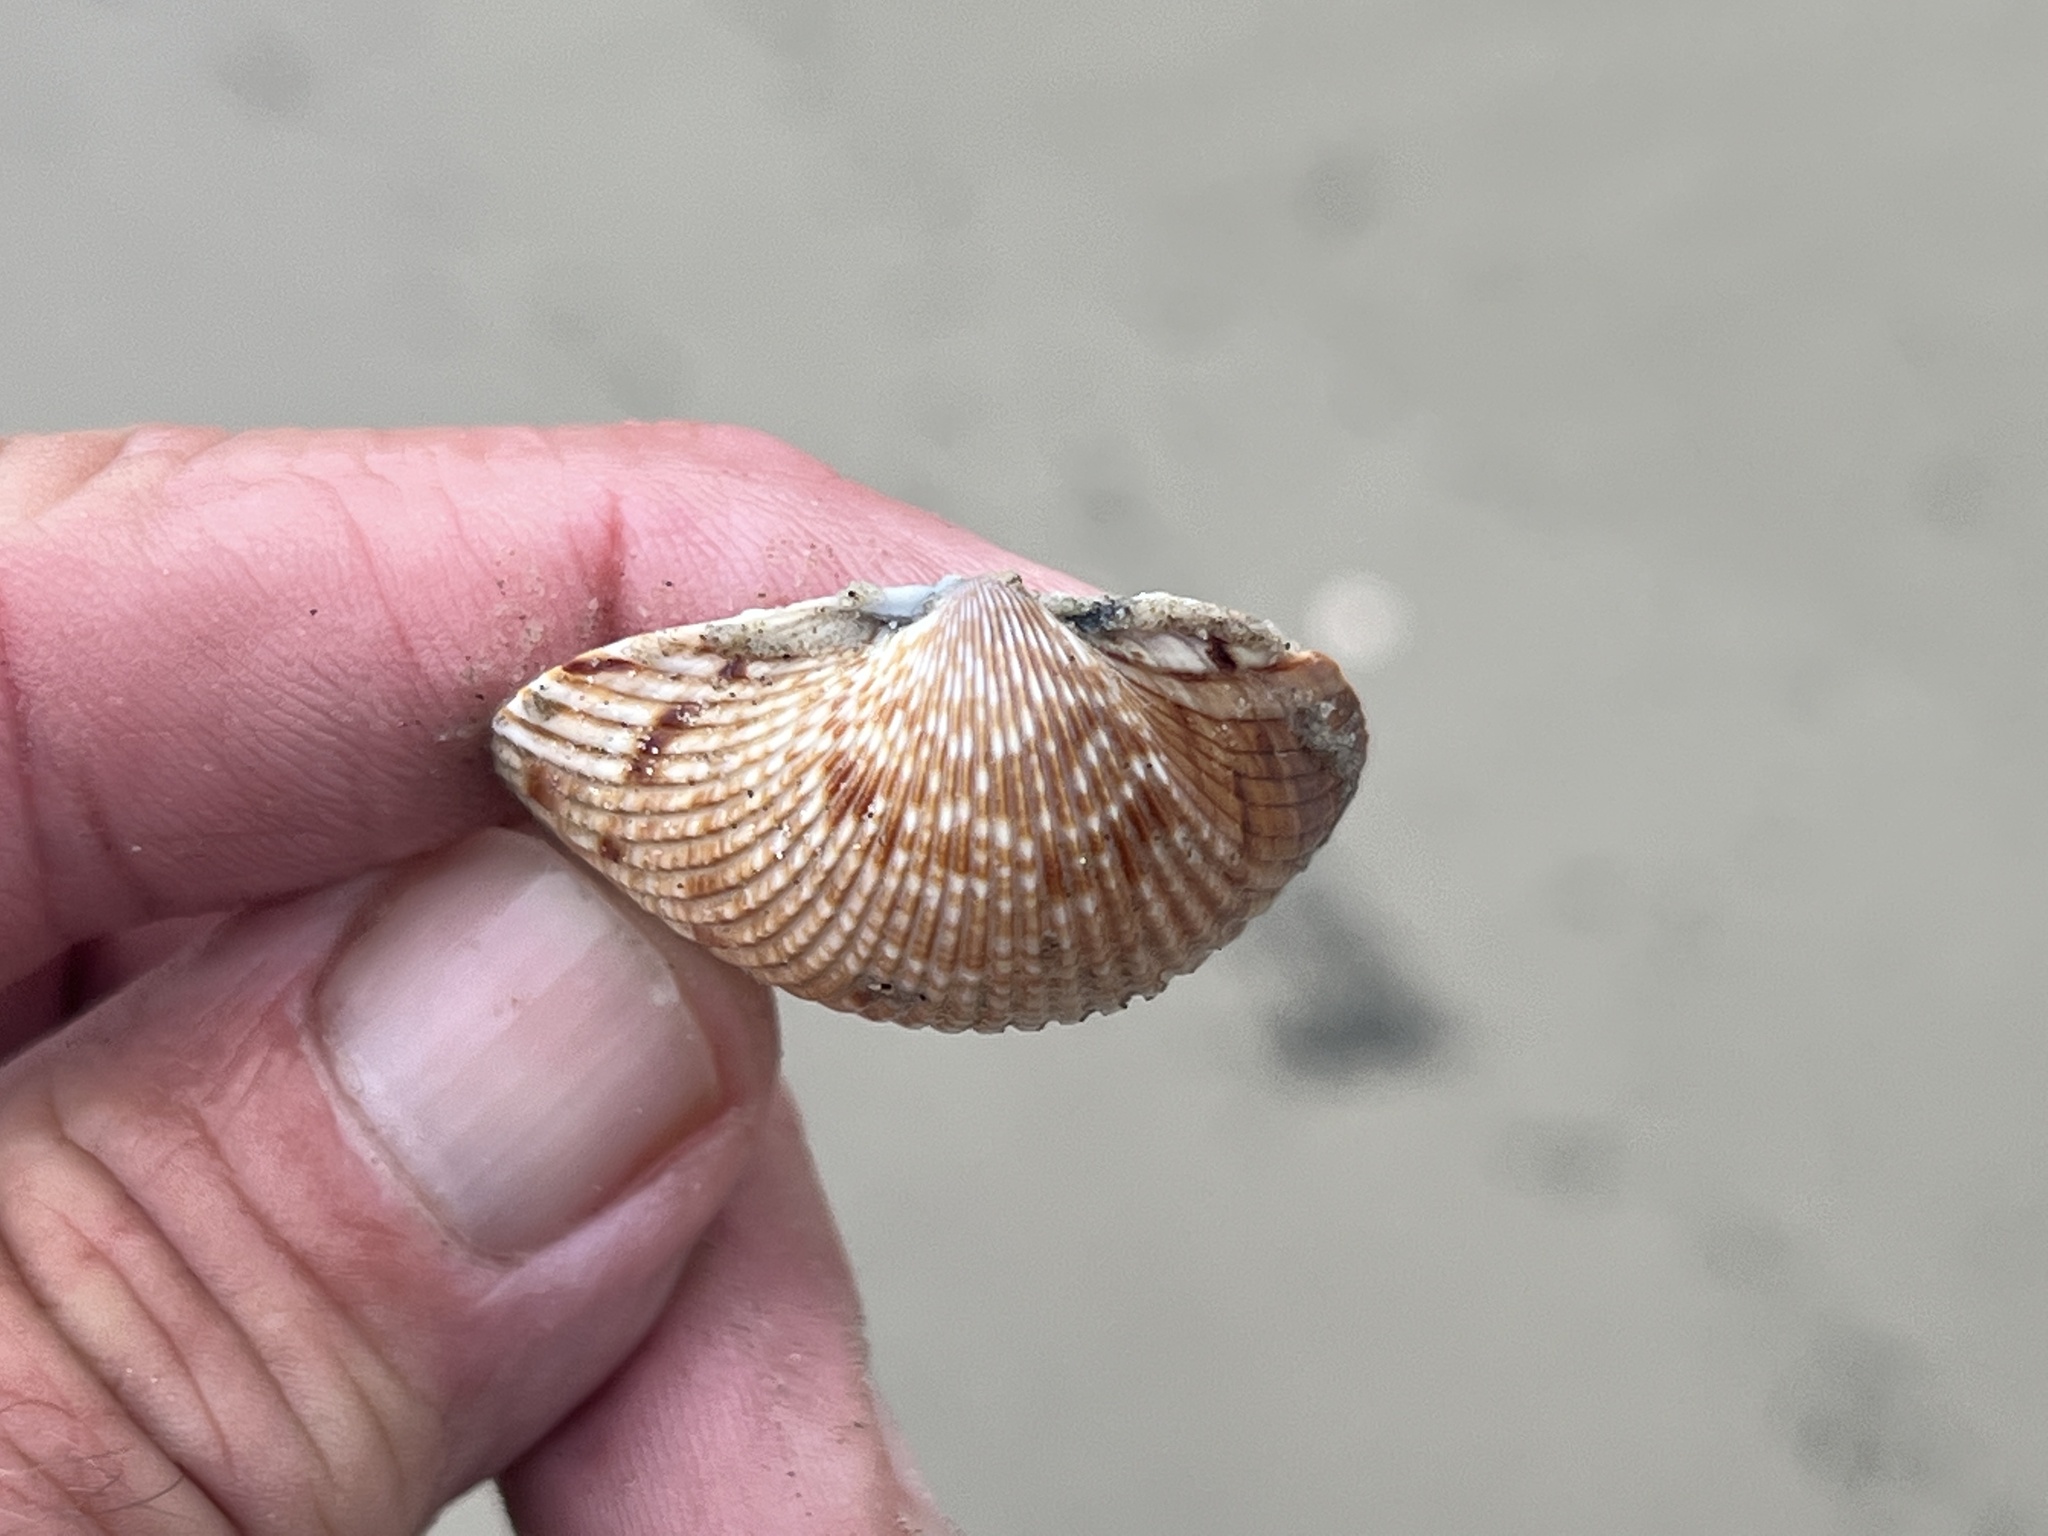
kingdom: Animalia
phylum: Mollusca
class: Bivalvia
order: Cardiida
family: Cardiidae
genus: Dinocardium
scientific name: Dinocardium robustum
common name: Atlantic giant cockle
